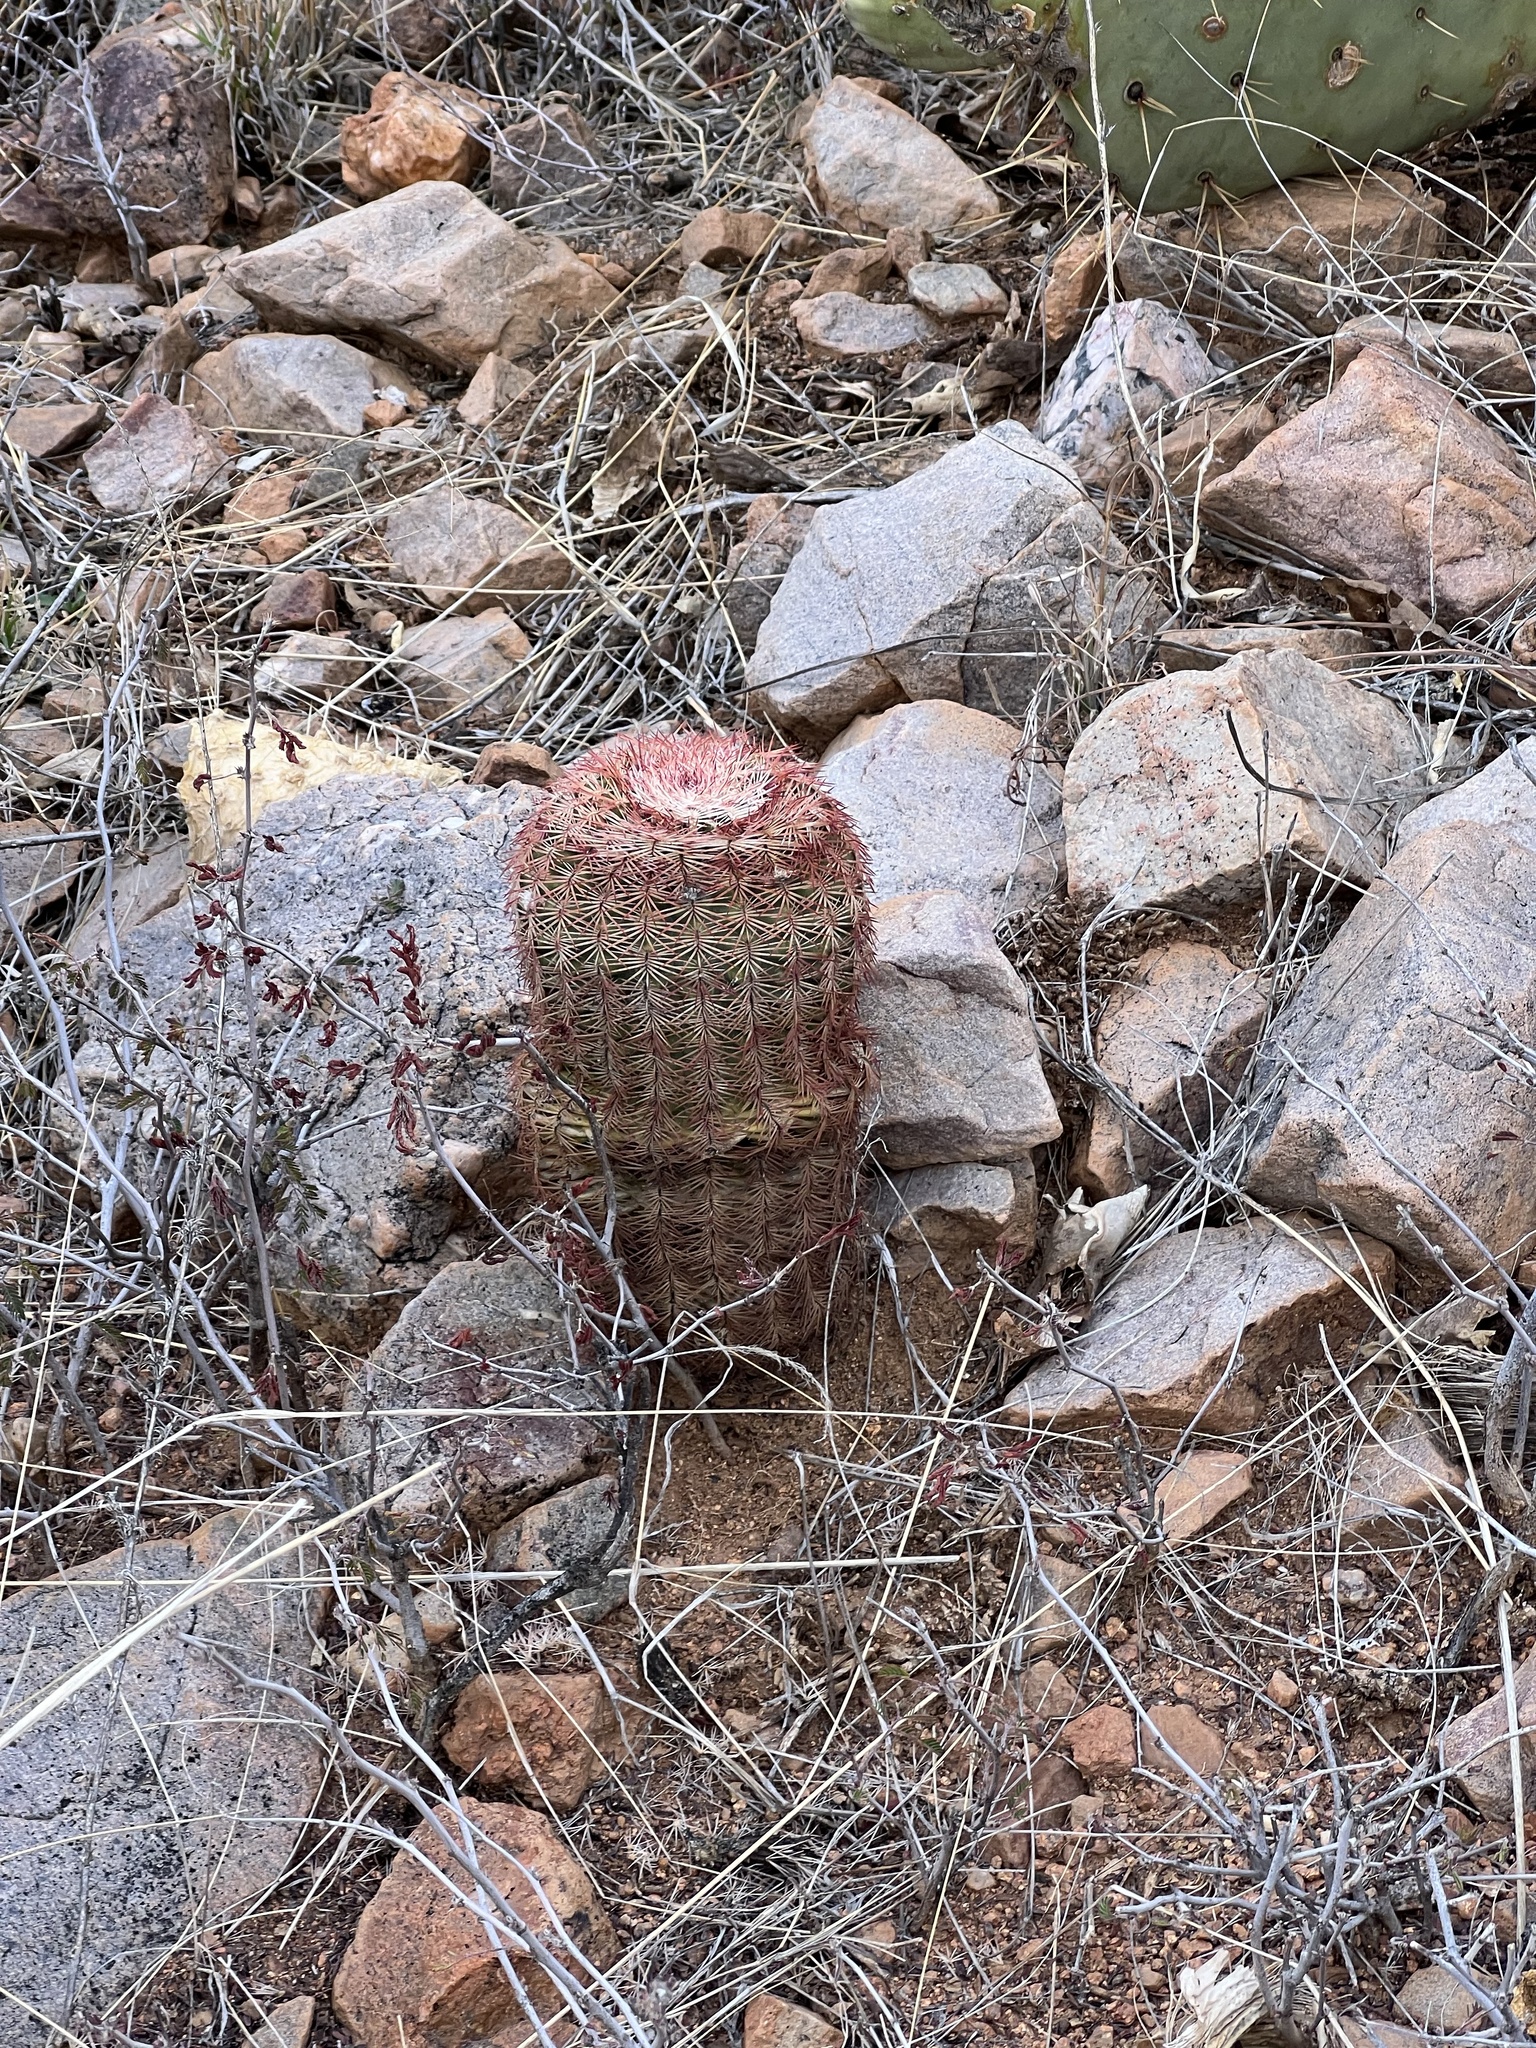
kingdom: Plantae
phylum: Tracheophyta
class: Magnoliopsida
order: Caryophyllales
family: Cactaceae
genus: Echinocereus
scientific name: Echinocereus rigidissimus
